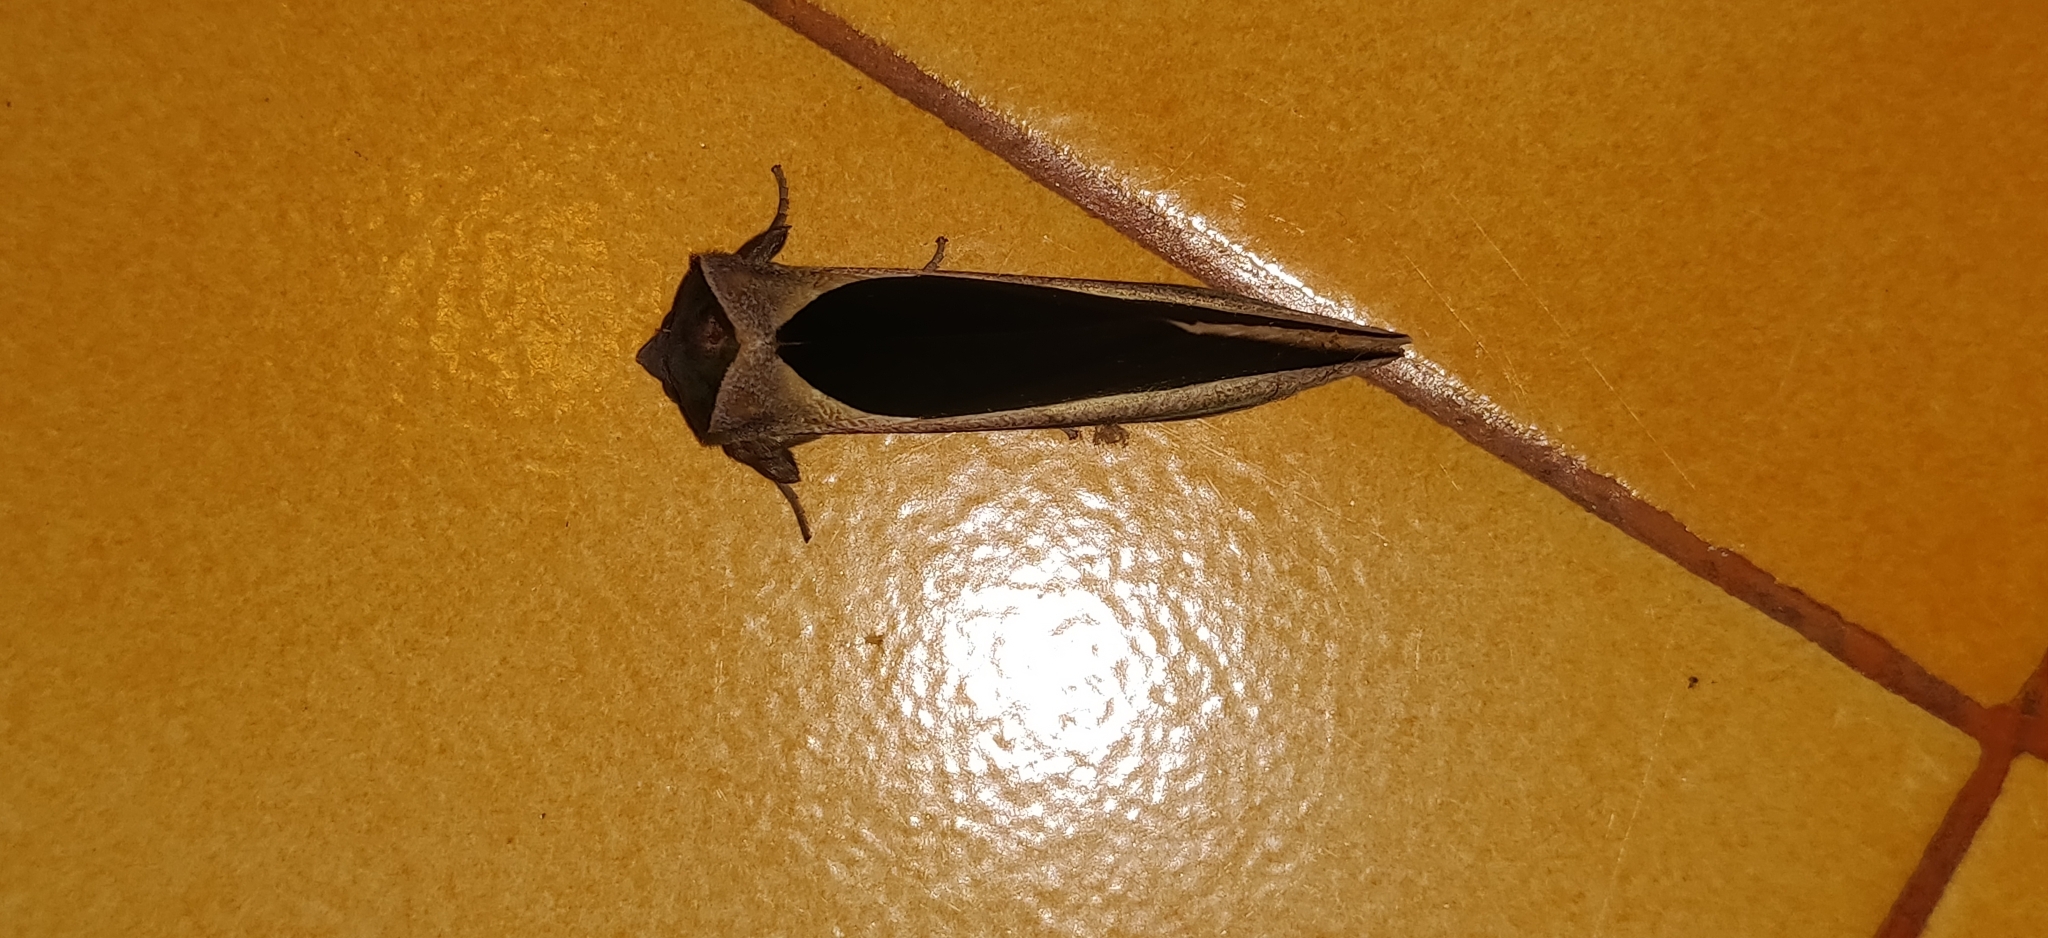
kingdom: Animalia
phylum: Arthropoda
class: Insecta
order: Lepidoptera
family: Erebidae
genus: Eudocima
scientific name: Eudocima salaminia
